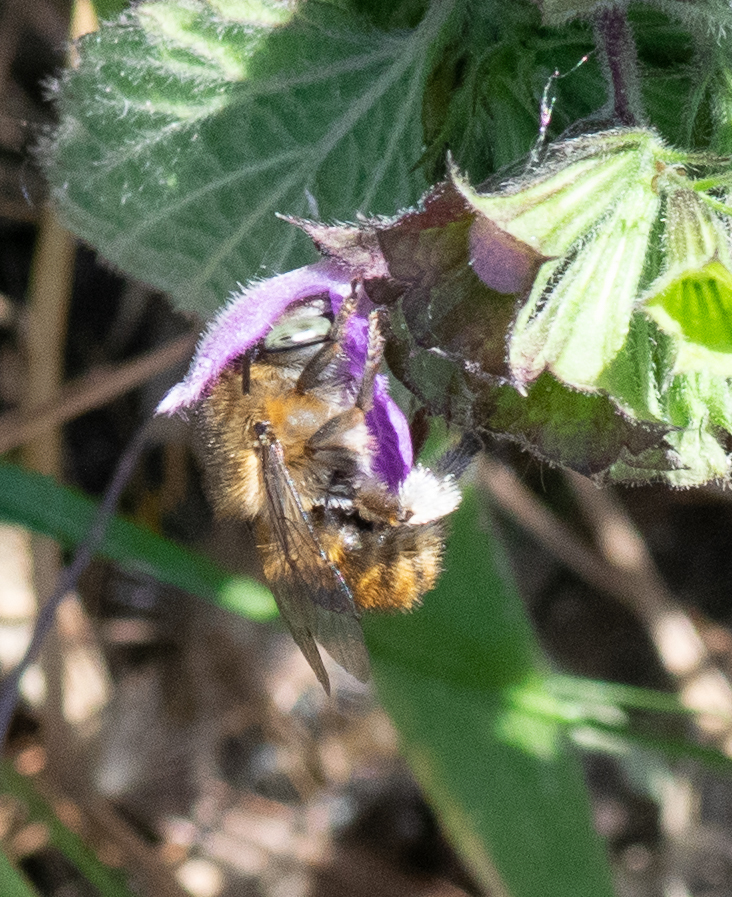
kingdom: Animalia
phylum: Arthropoda
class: Insecta
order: Hymenoptera
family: Apidae
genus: Anthophora
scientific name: Anthophora quadrimaculata
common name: Four-banded flower bee
